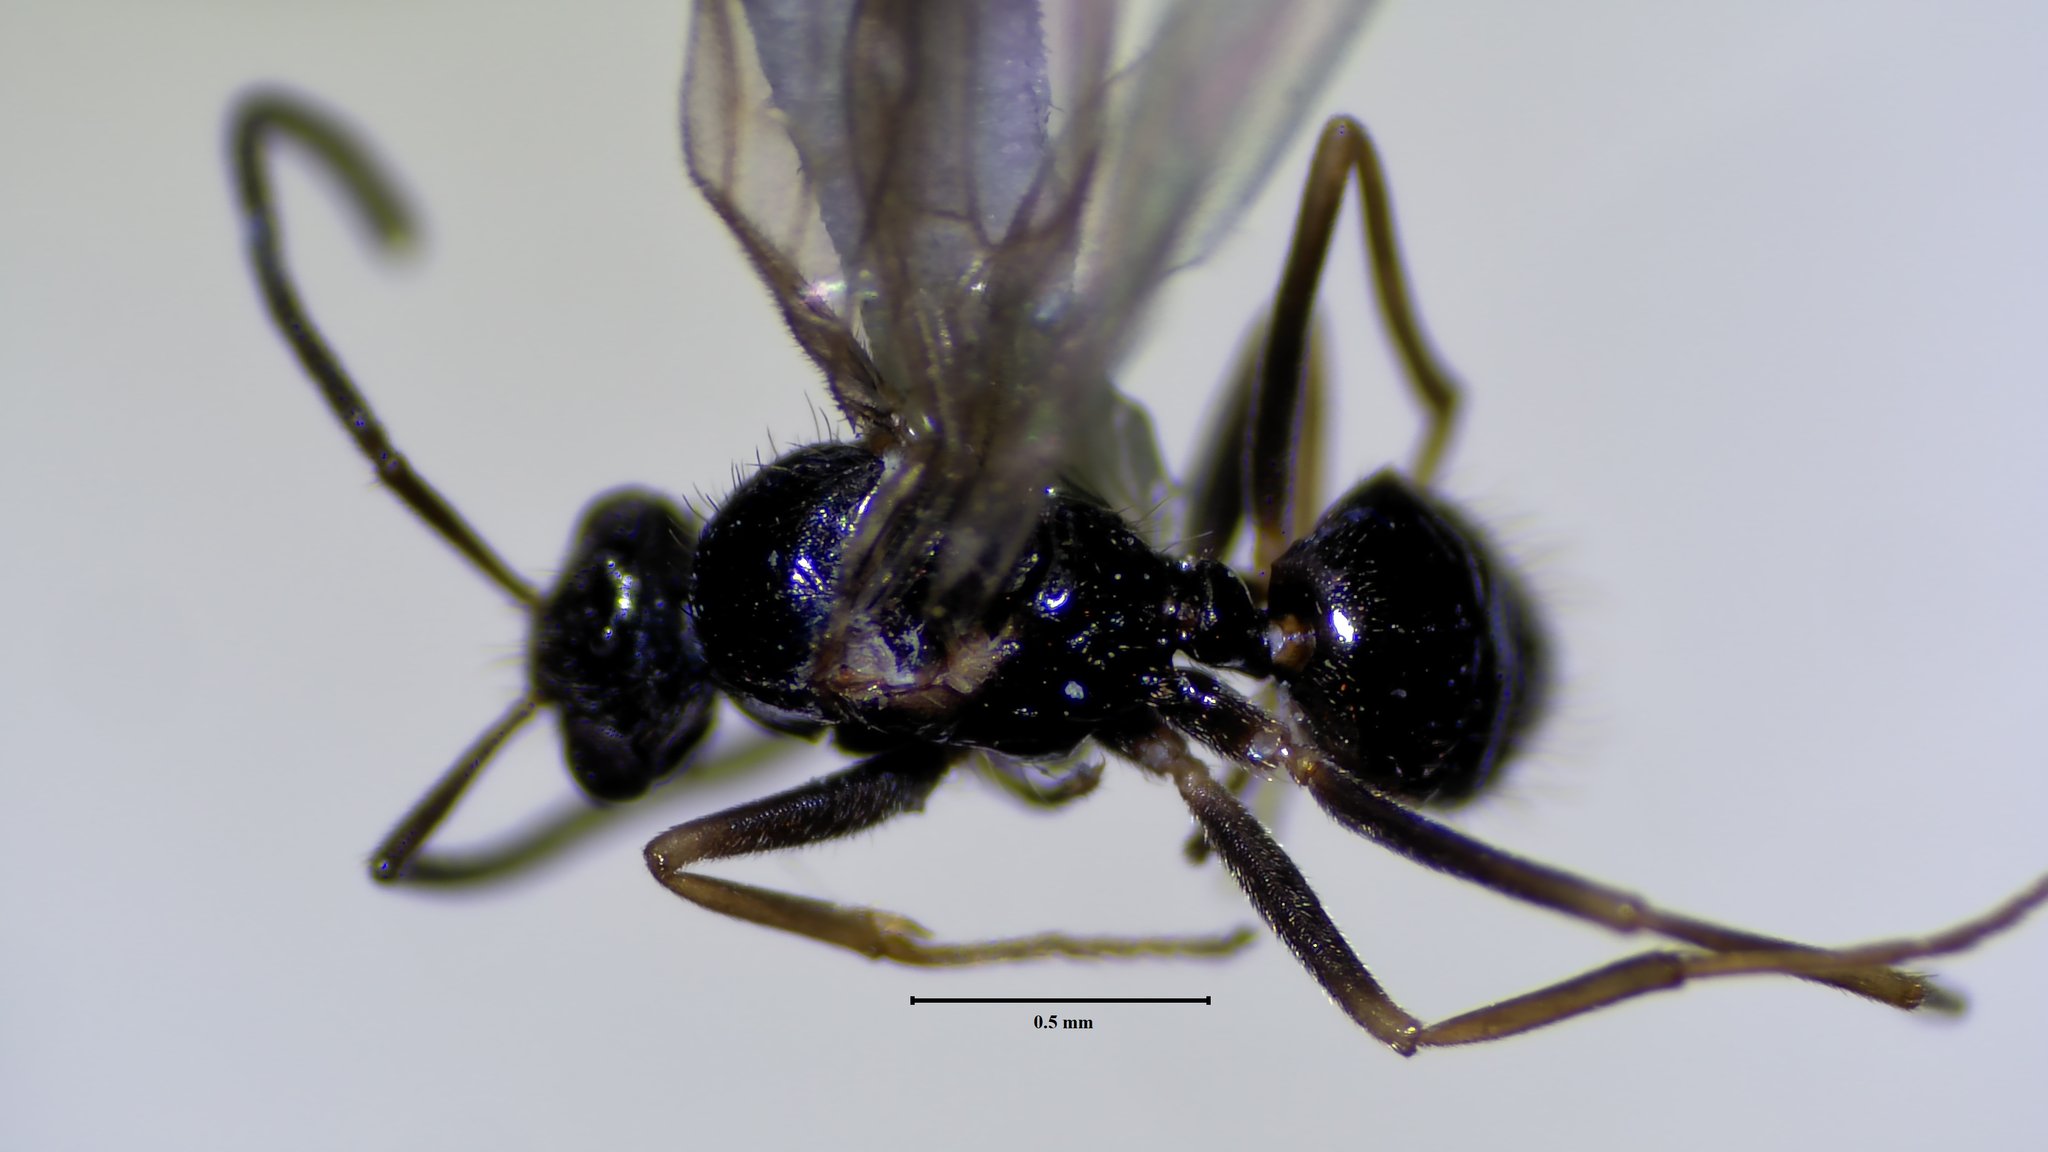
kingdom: Animalia
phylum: Arthropoda
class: Insecta
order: Hymenoptera
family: Formicidae
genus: Prenolepis
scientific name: Prenolepis imparis
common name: Small honey ant
